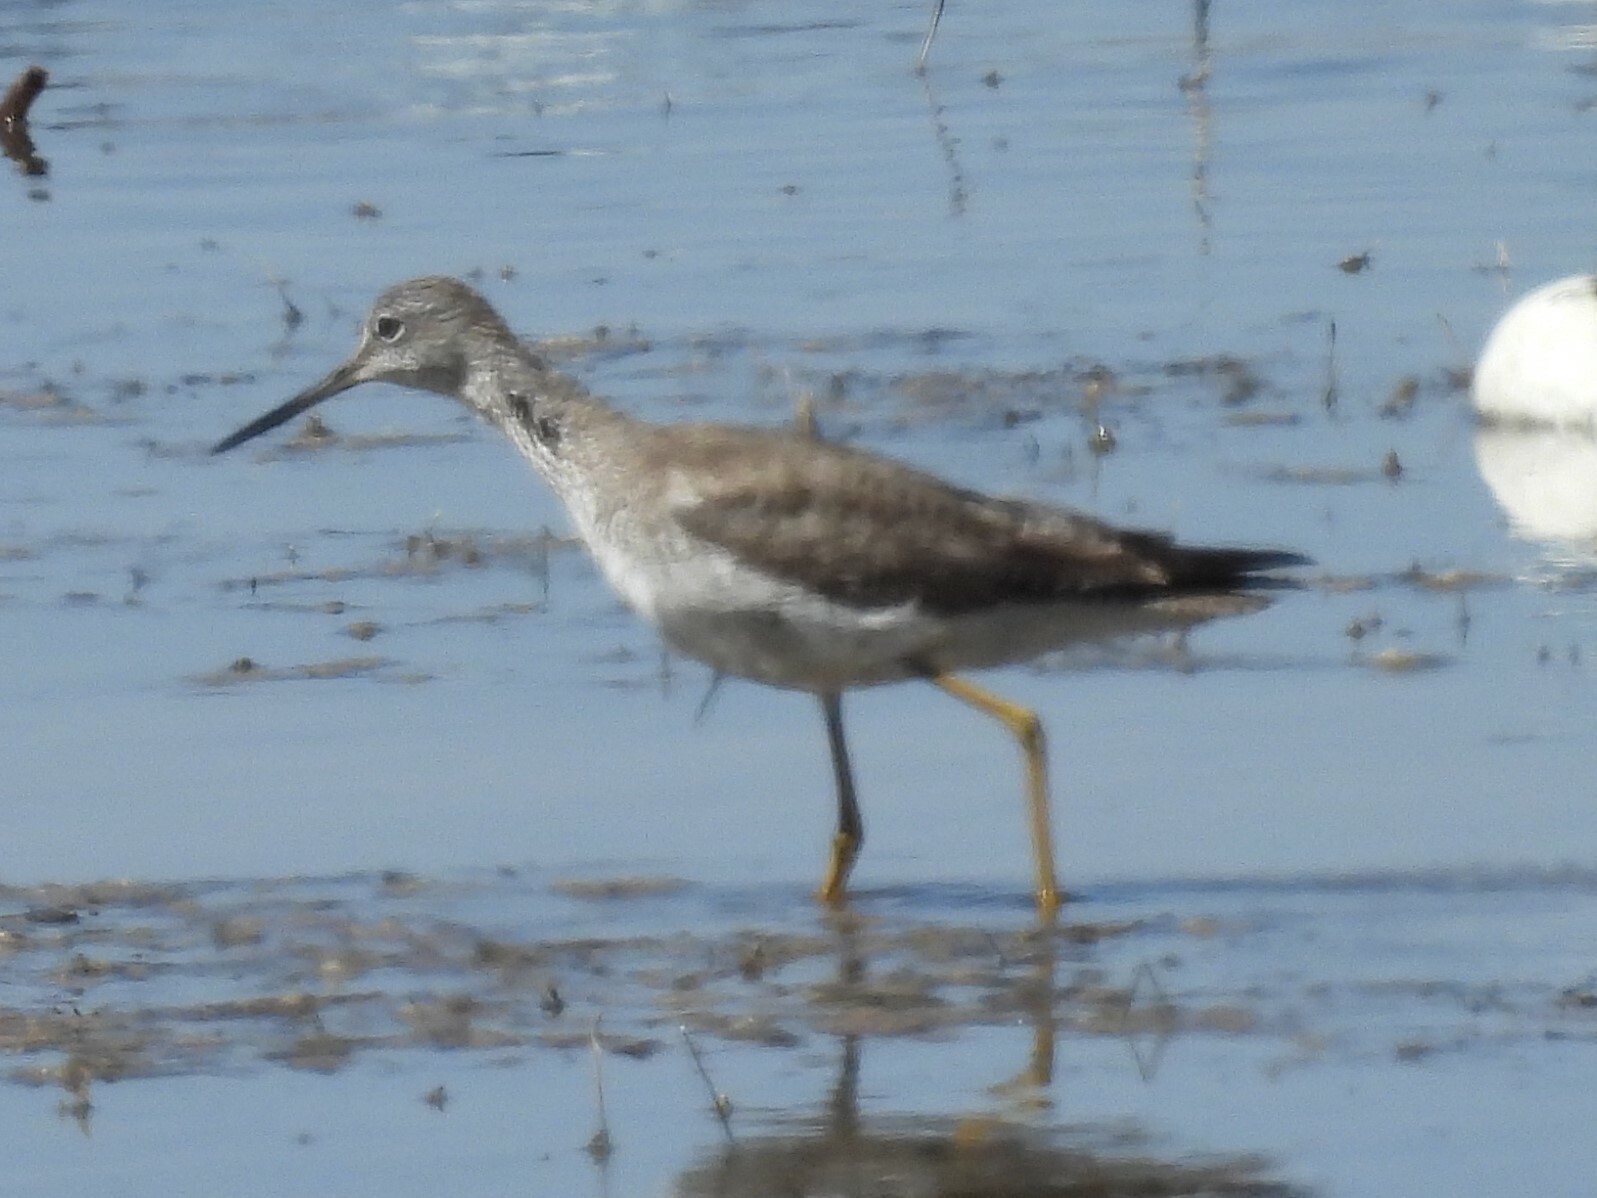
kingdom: Animalia
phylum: Chordata
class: Aves
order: Charadriiformes
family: Scolopacidae
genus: Tringa
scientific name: Tringa melanoleuca
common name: Greater yellowlegs
